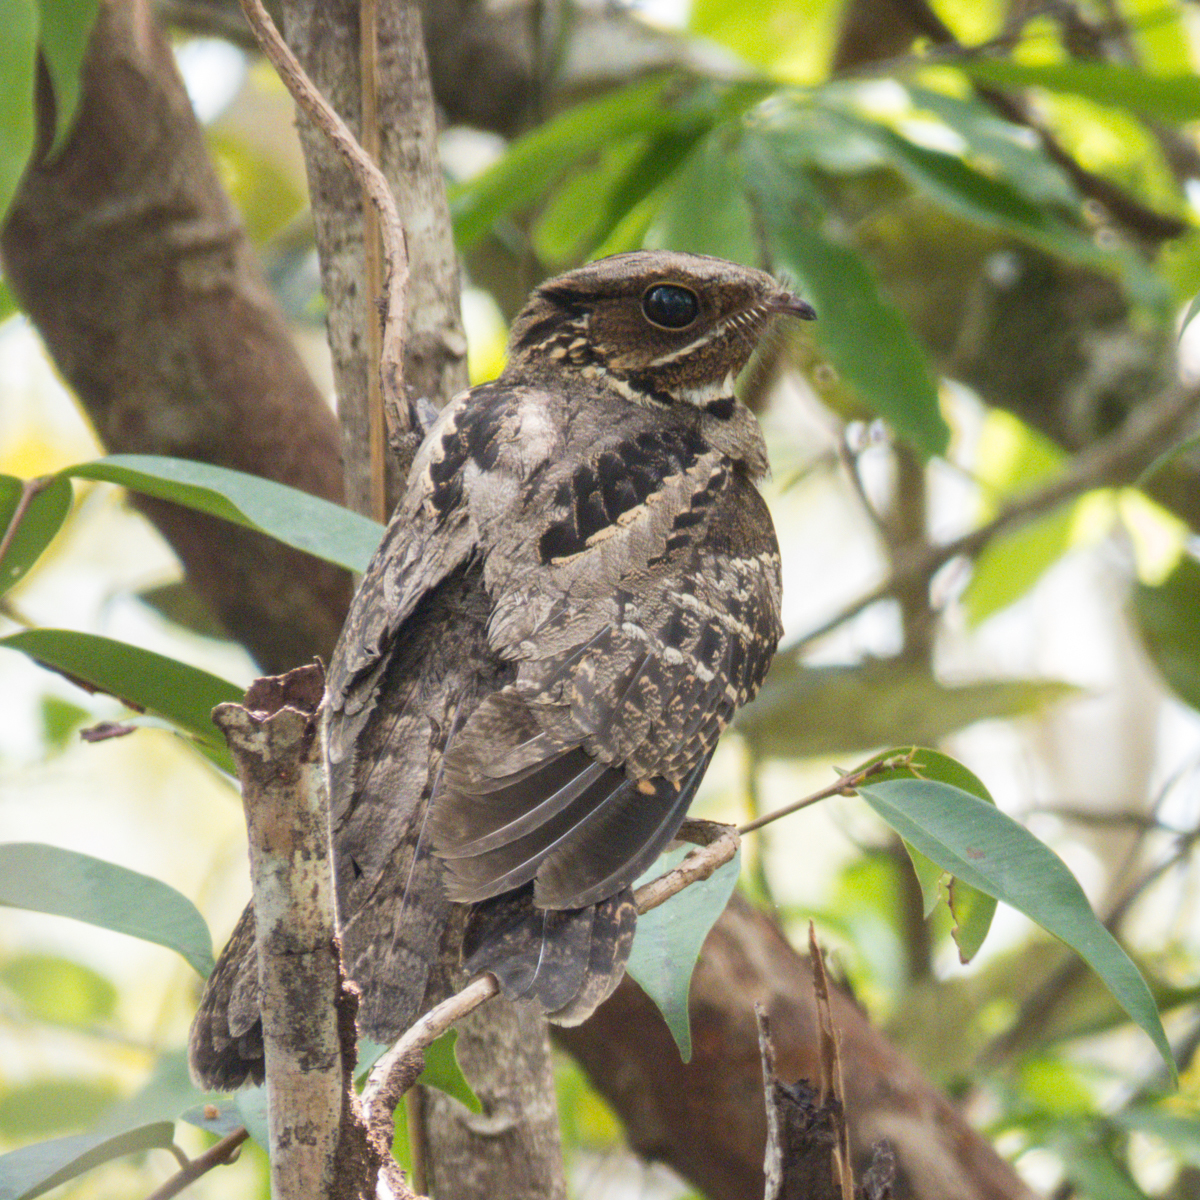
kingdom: Animalia
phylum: Chordata
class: Aves
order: Caprimulgiformes
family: Caprimulgidae
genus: Caprimulgus
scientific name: Caprimulgus macrurus
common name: Large-tailed nightjar
